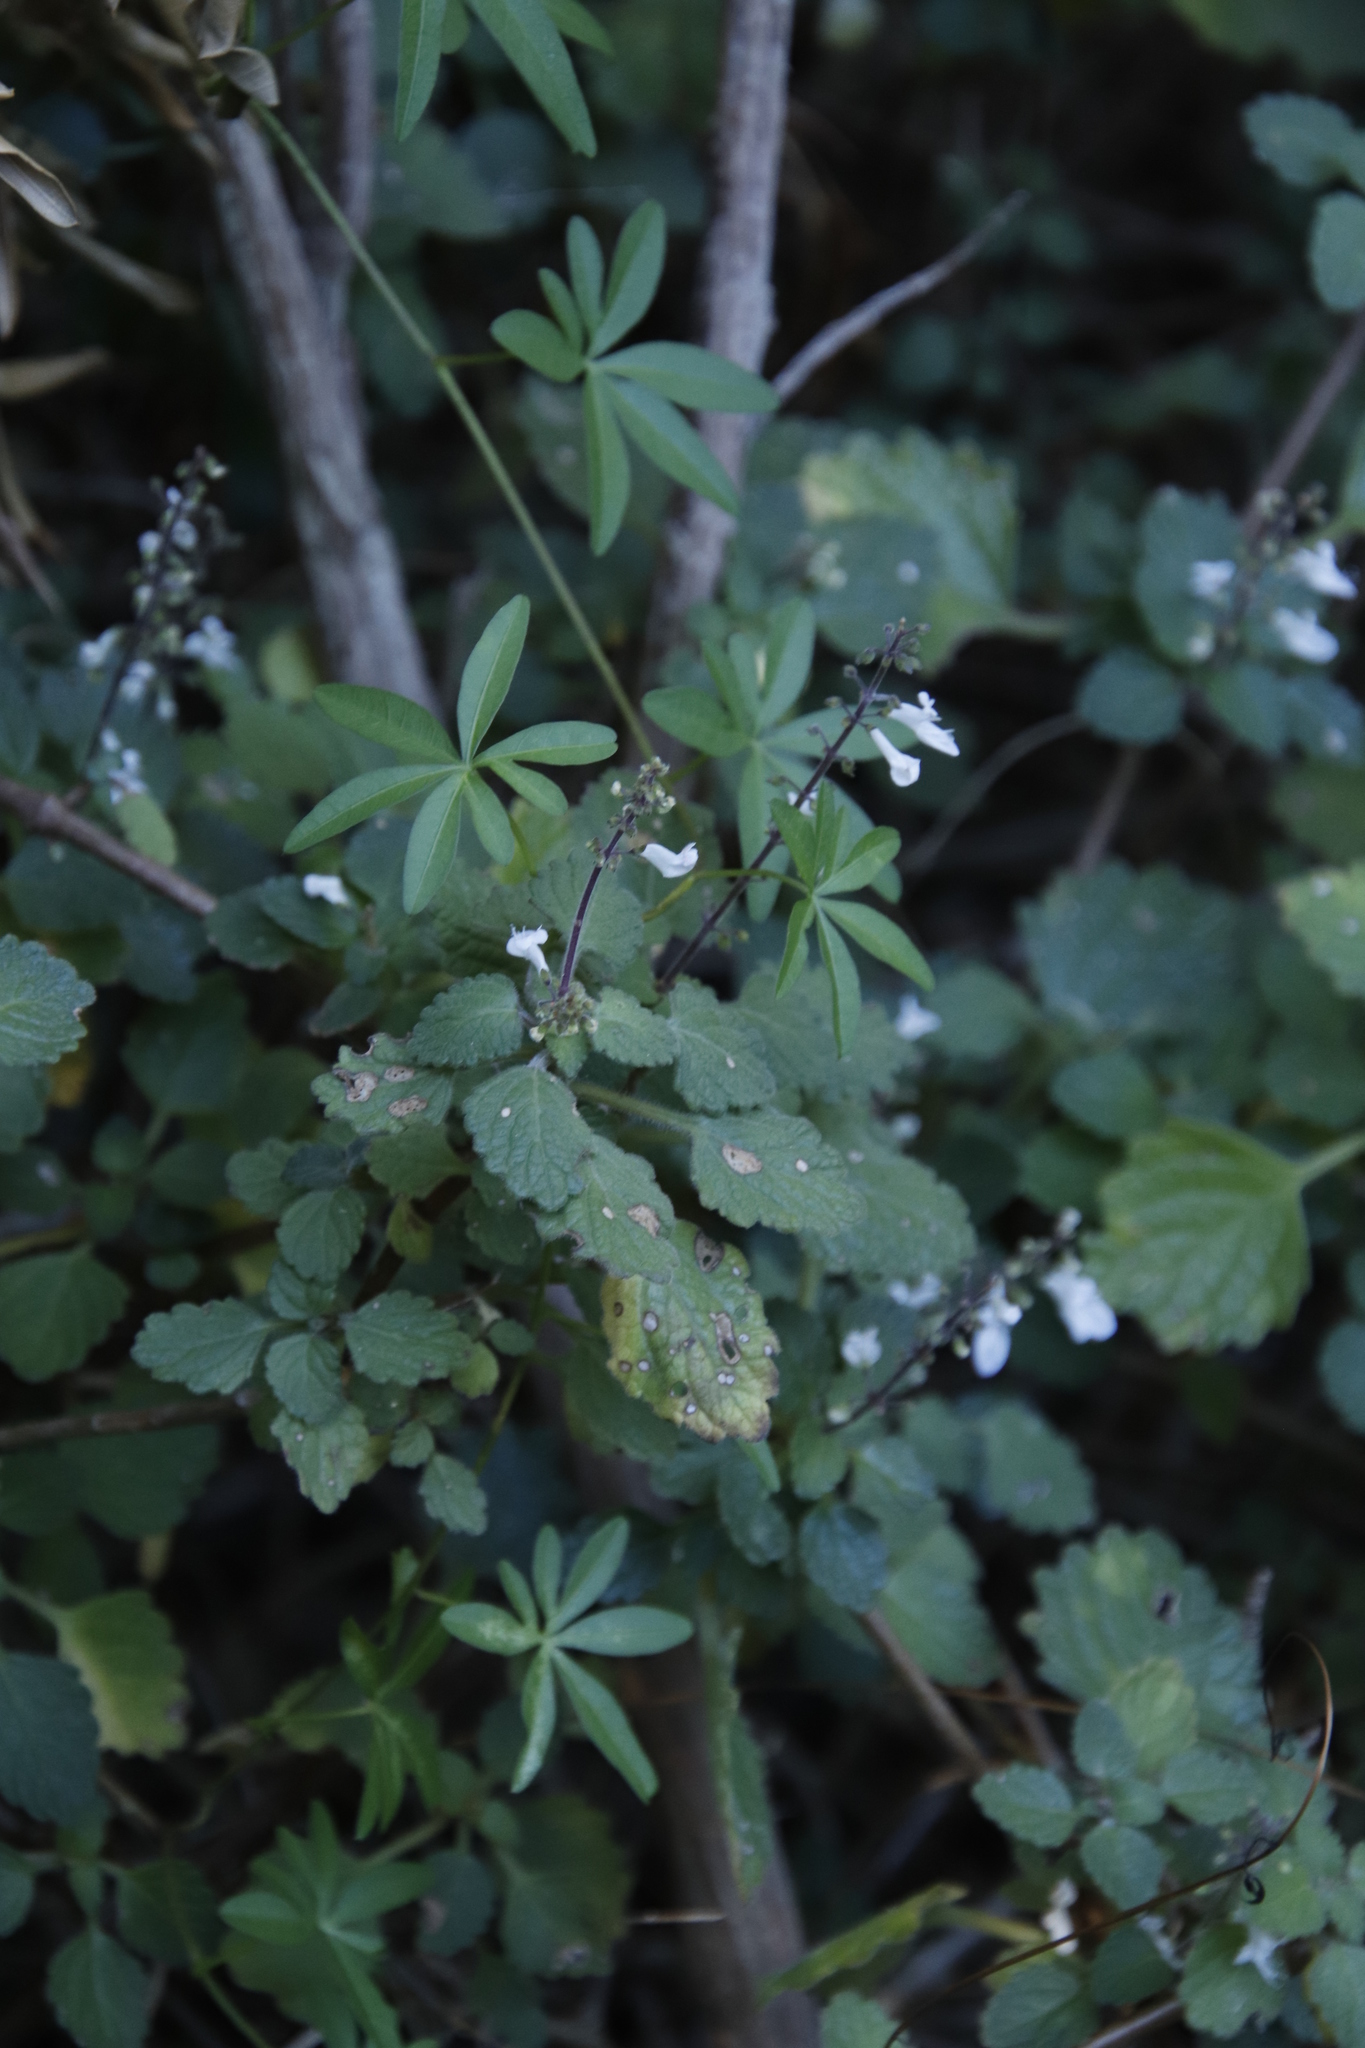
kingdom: Plantae
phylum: Tracheophyta
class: Magnoliopsida
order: Lamiales
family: Lamiaceae
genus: Coleus
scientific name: Coleus madagascariensis
